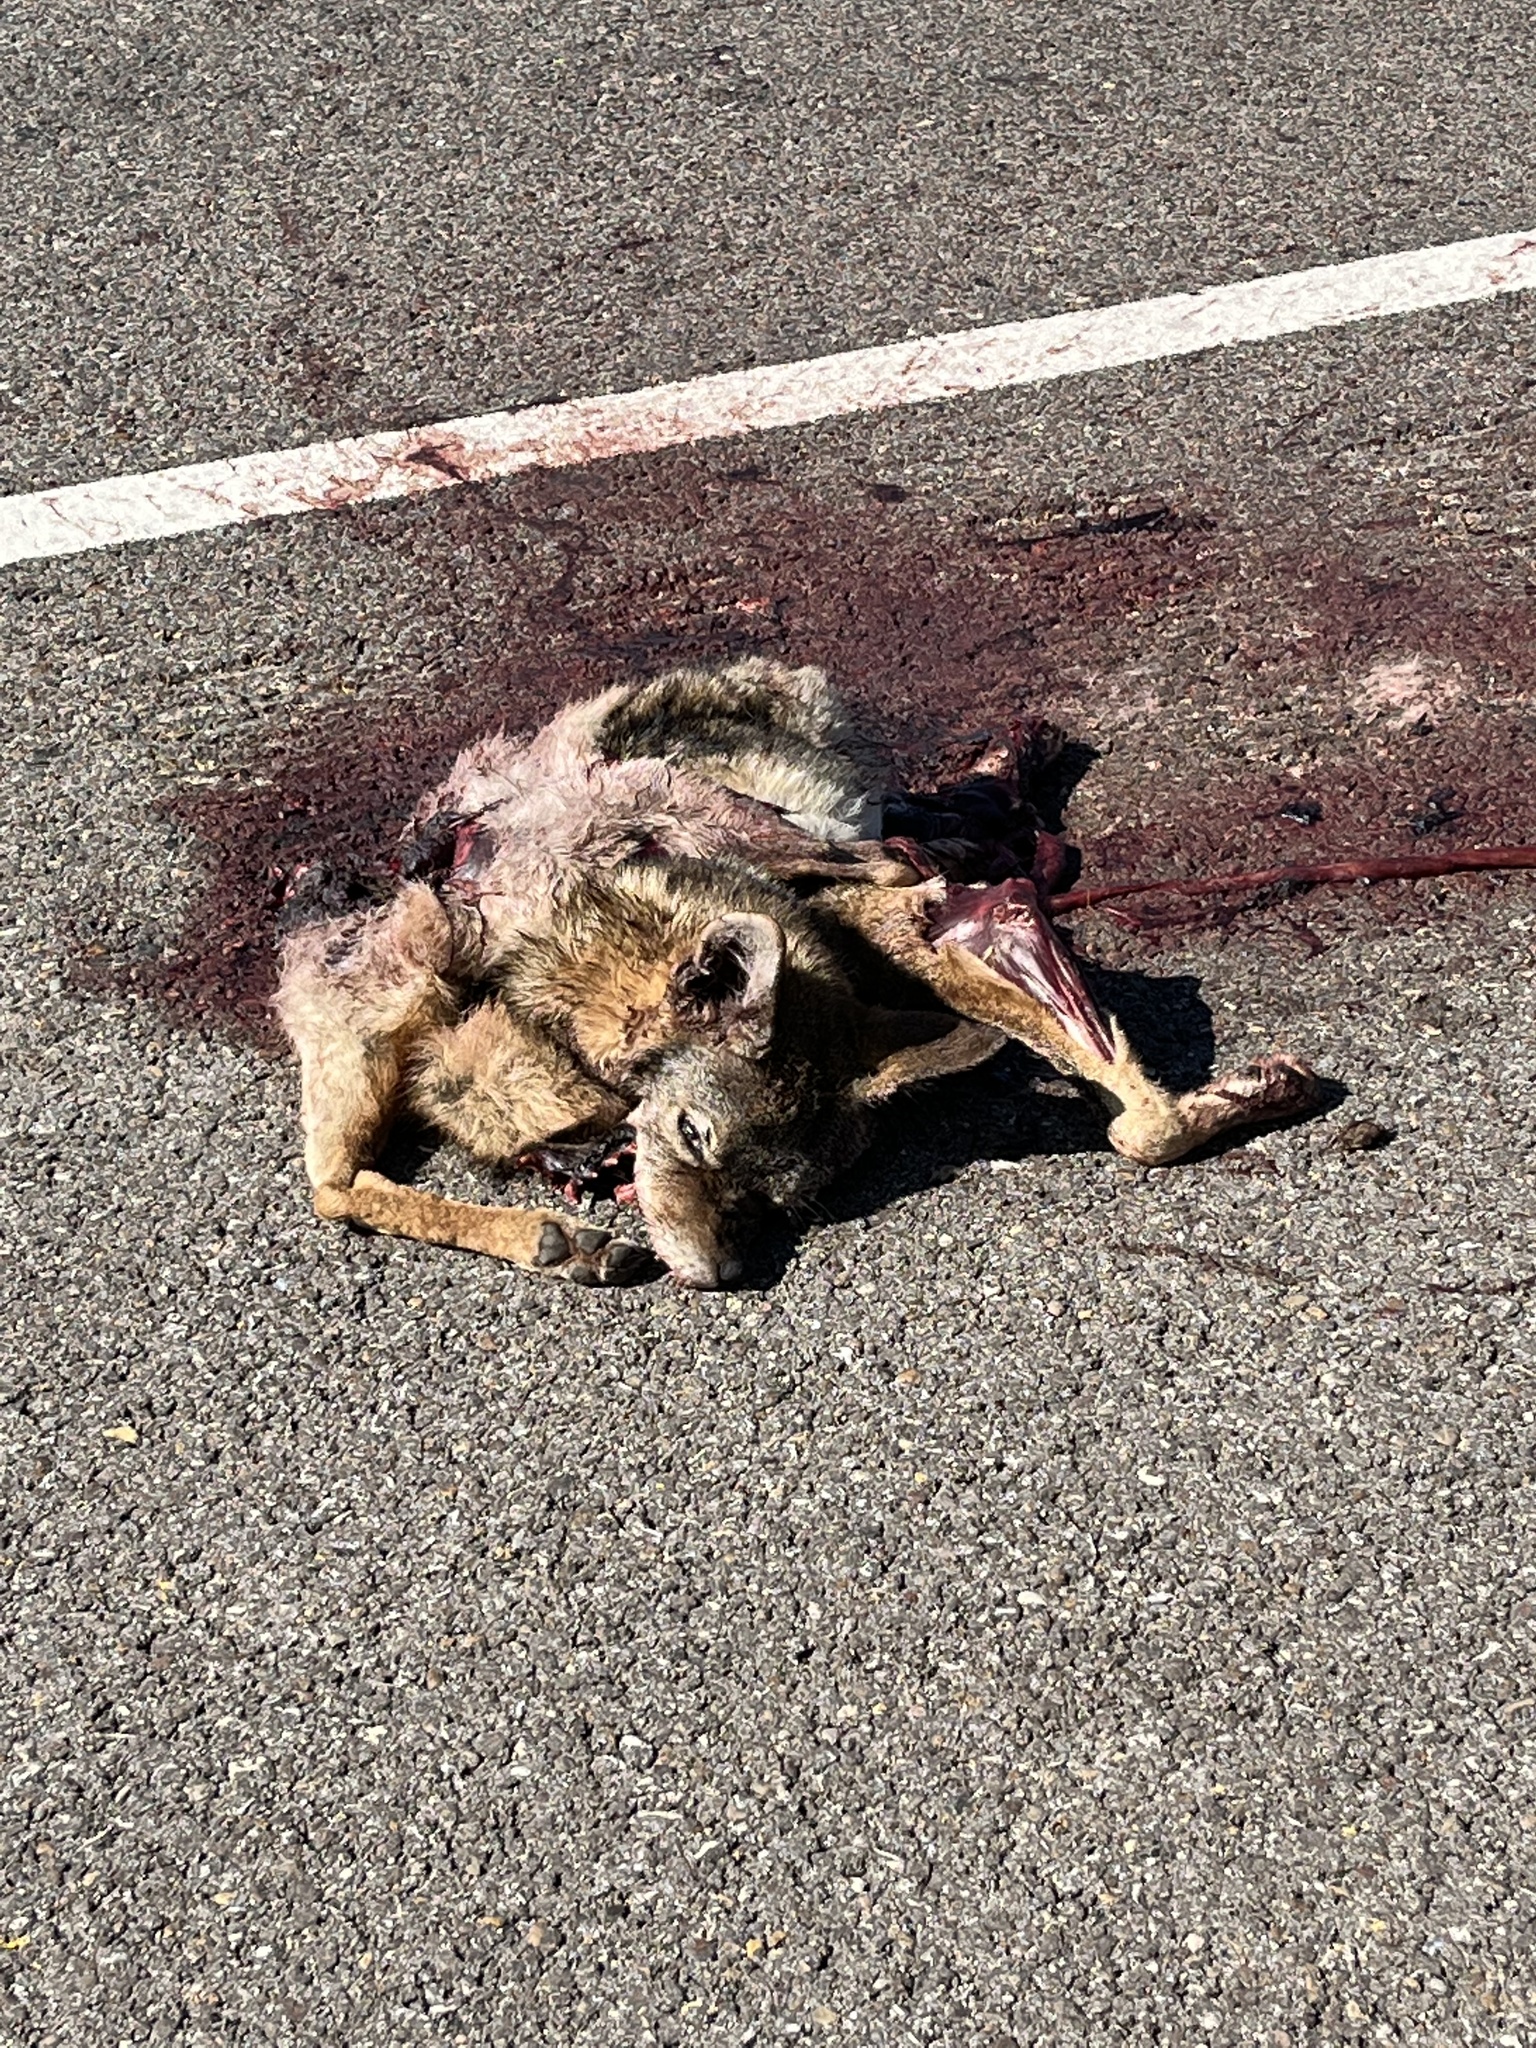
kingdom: Animalia
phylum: Chordata
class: Mammalia
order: Carnivora
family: Canidae
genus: Canis
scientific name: Canis latrans
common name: Coyote
